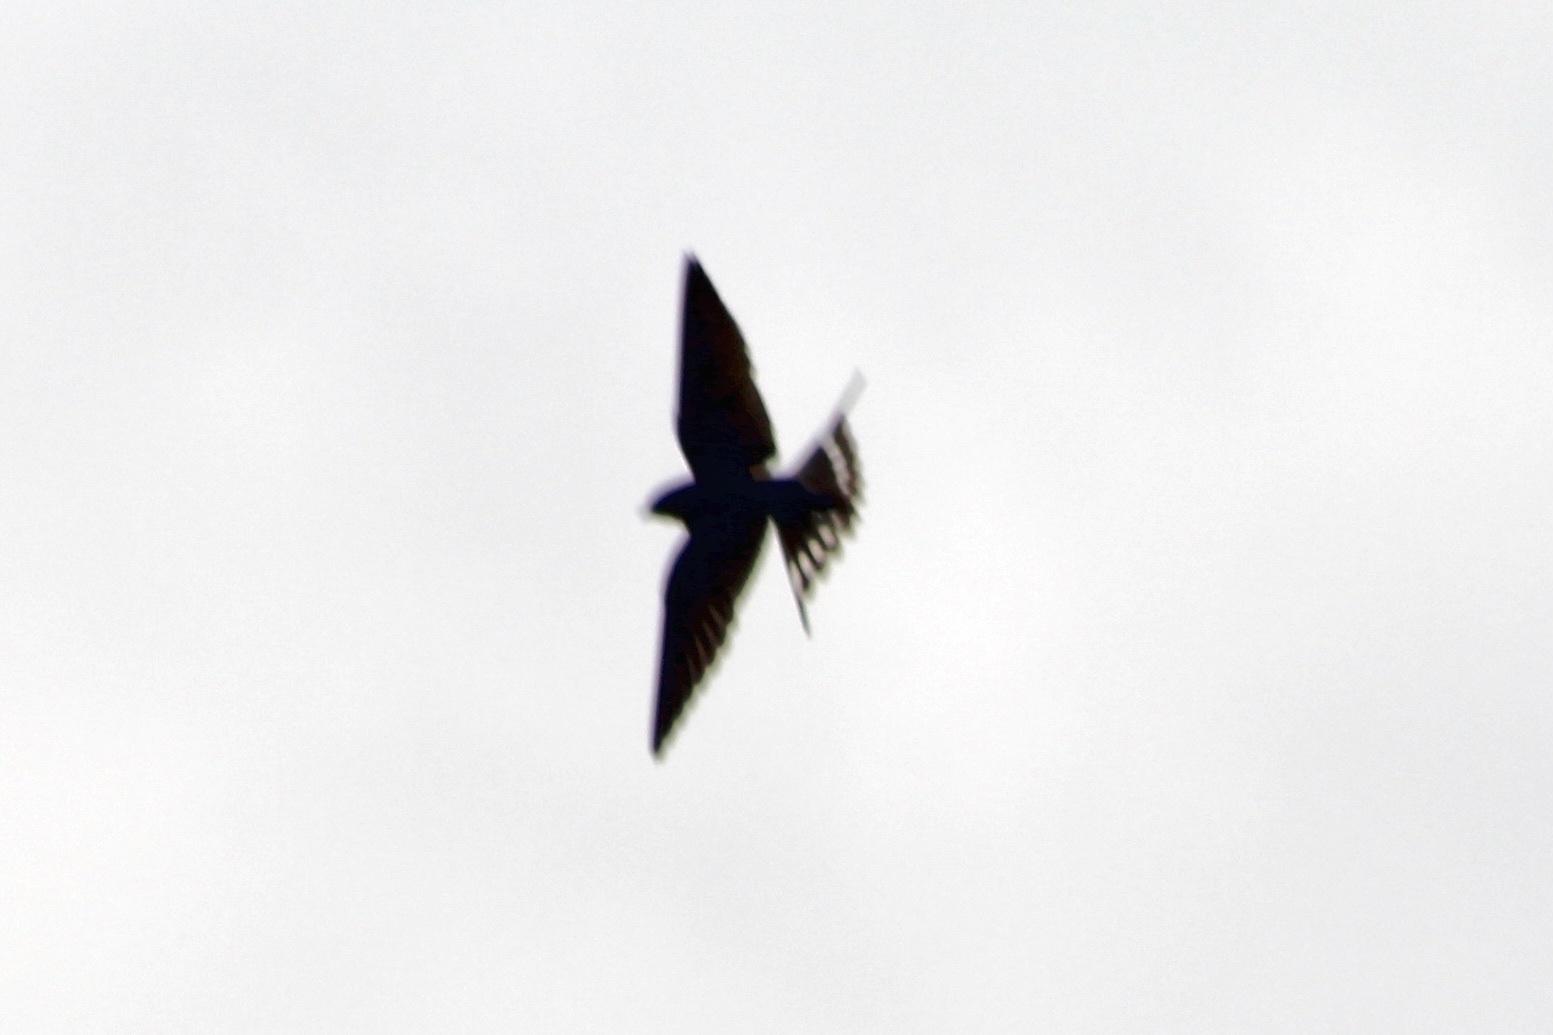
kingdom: Animalia
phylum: Chordata
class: Aves
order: Passeriformes
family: Hirundinidae
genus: Hirundo
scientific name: Hirundo rustica
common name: Barn swallow
